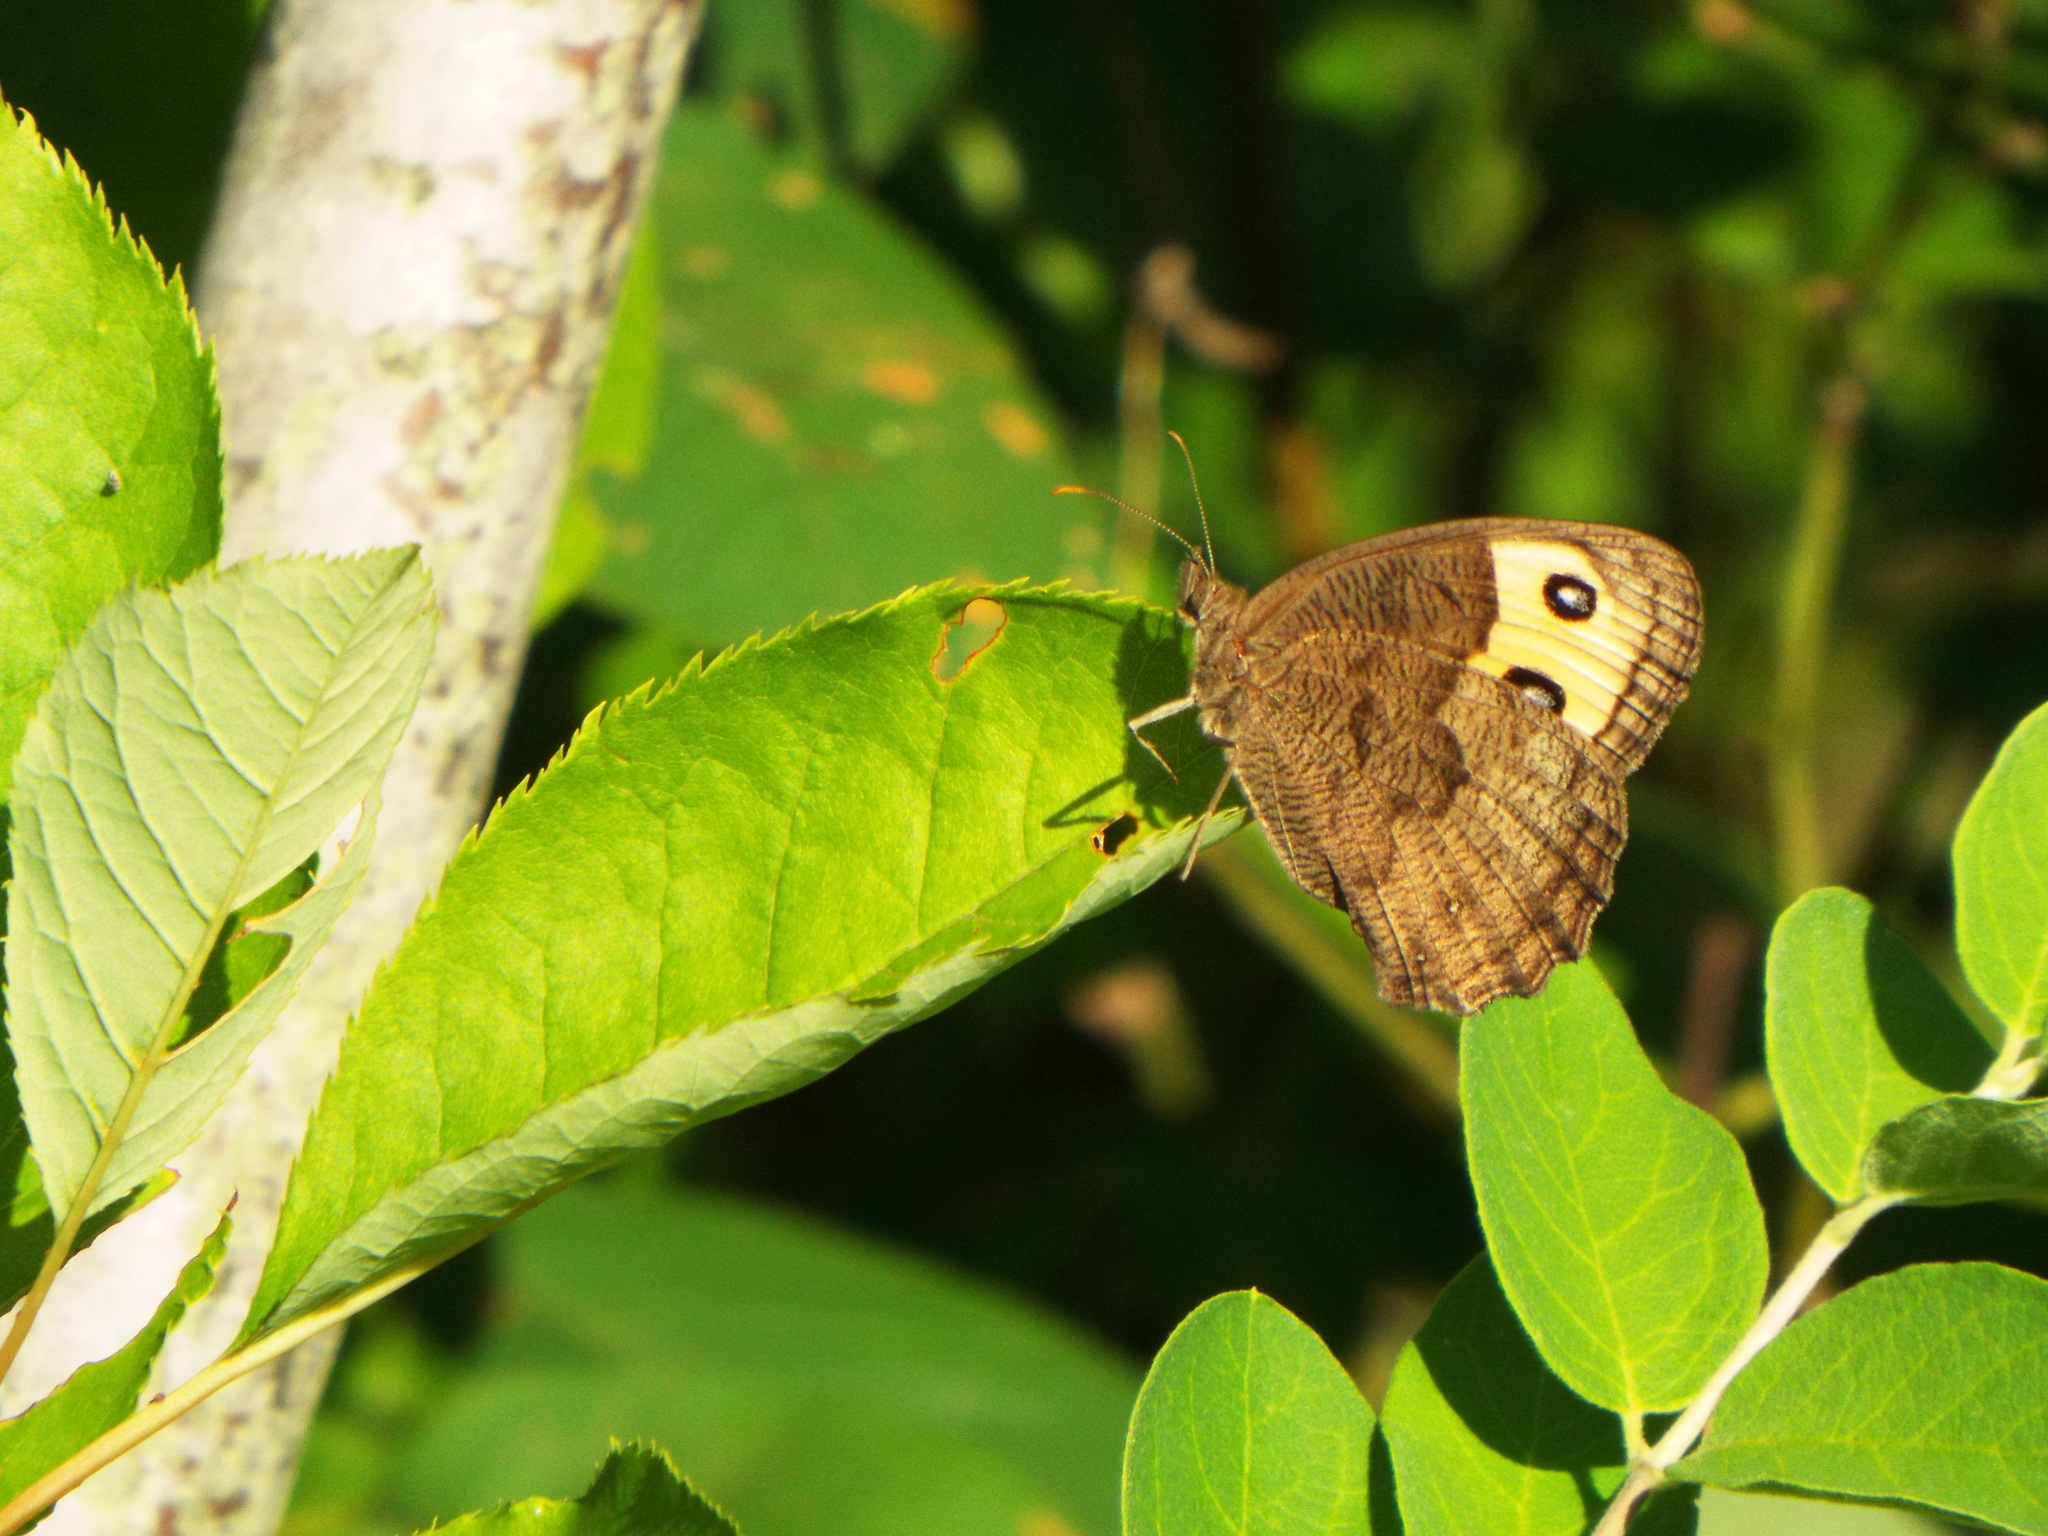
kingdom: Animalia
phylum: Arthropoda
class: Insecta
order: Lepidoptera
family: Nymphalidae
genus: Cercyonis
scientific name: Cercyonis pegala
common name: Common wood-nymph
